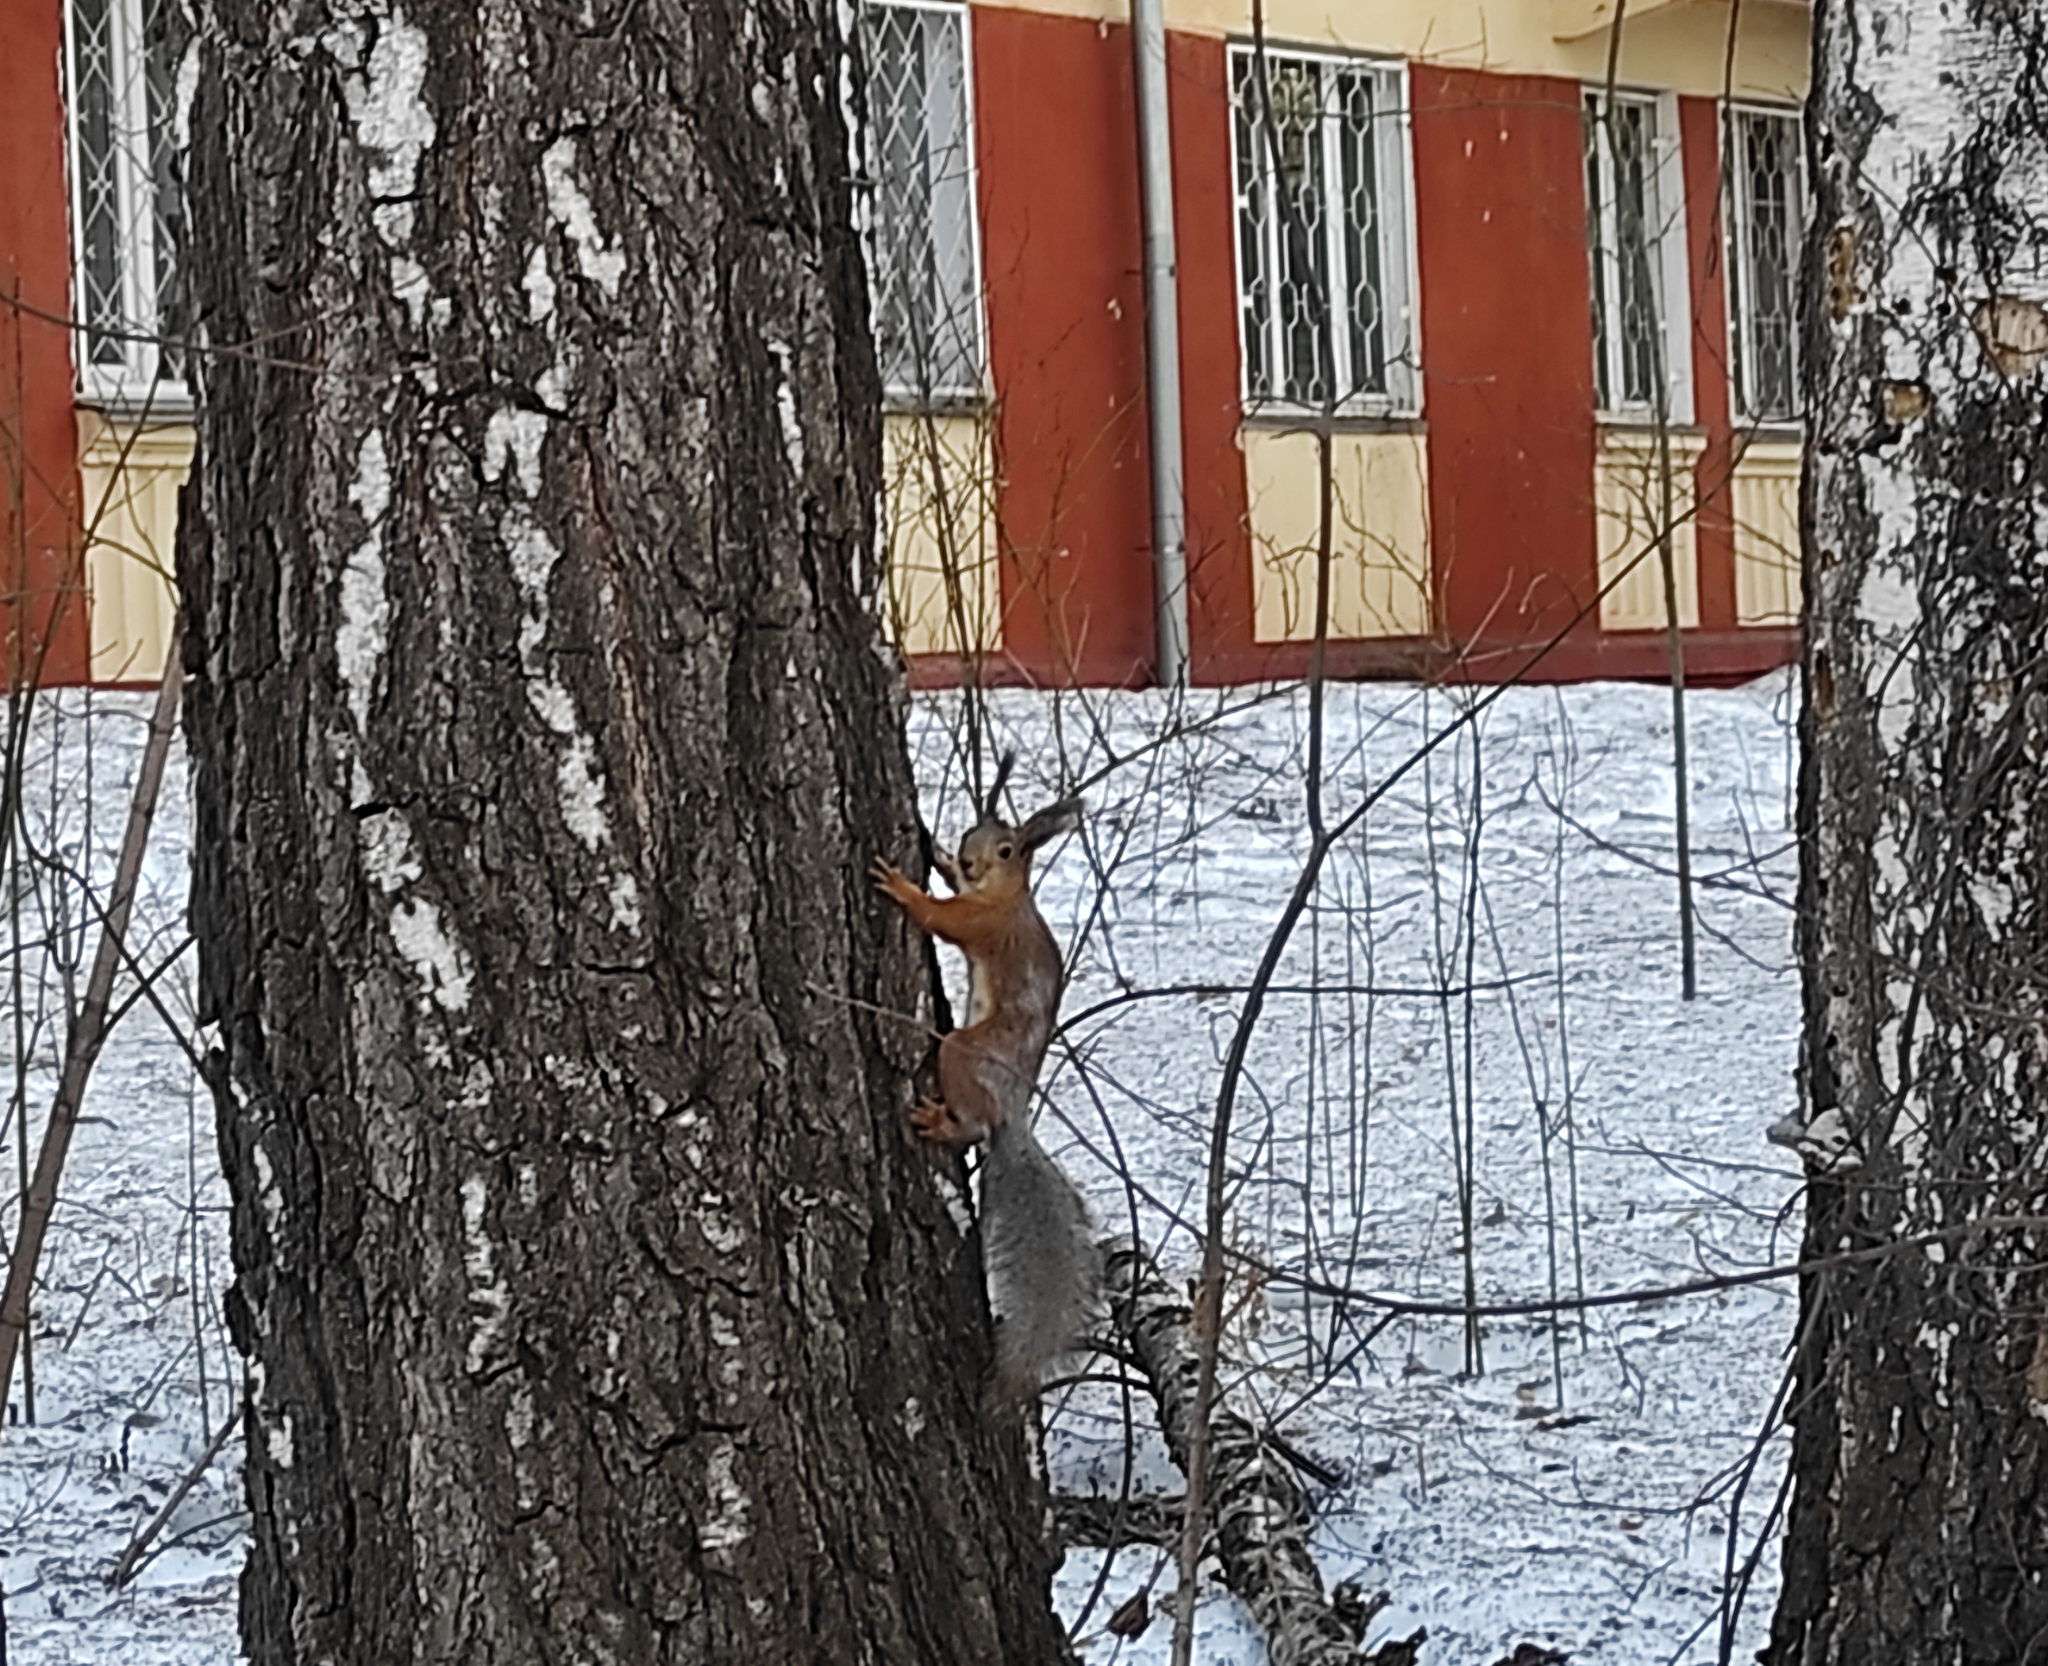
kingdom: Animalia
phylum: Chordata
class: Mammalia
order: Rodentia
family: Sciuridae
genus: Sciurus
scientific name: Sciurus vulgaris
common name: Eurasian red squirrel
